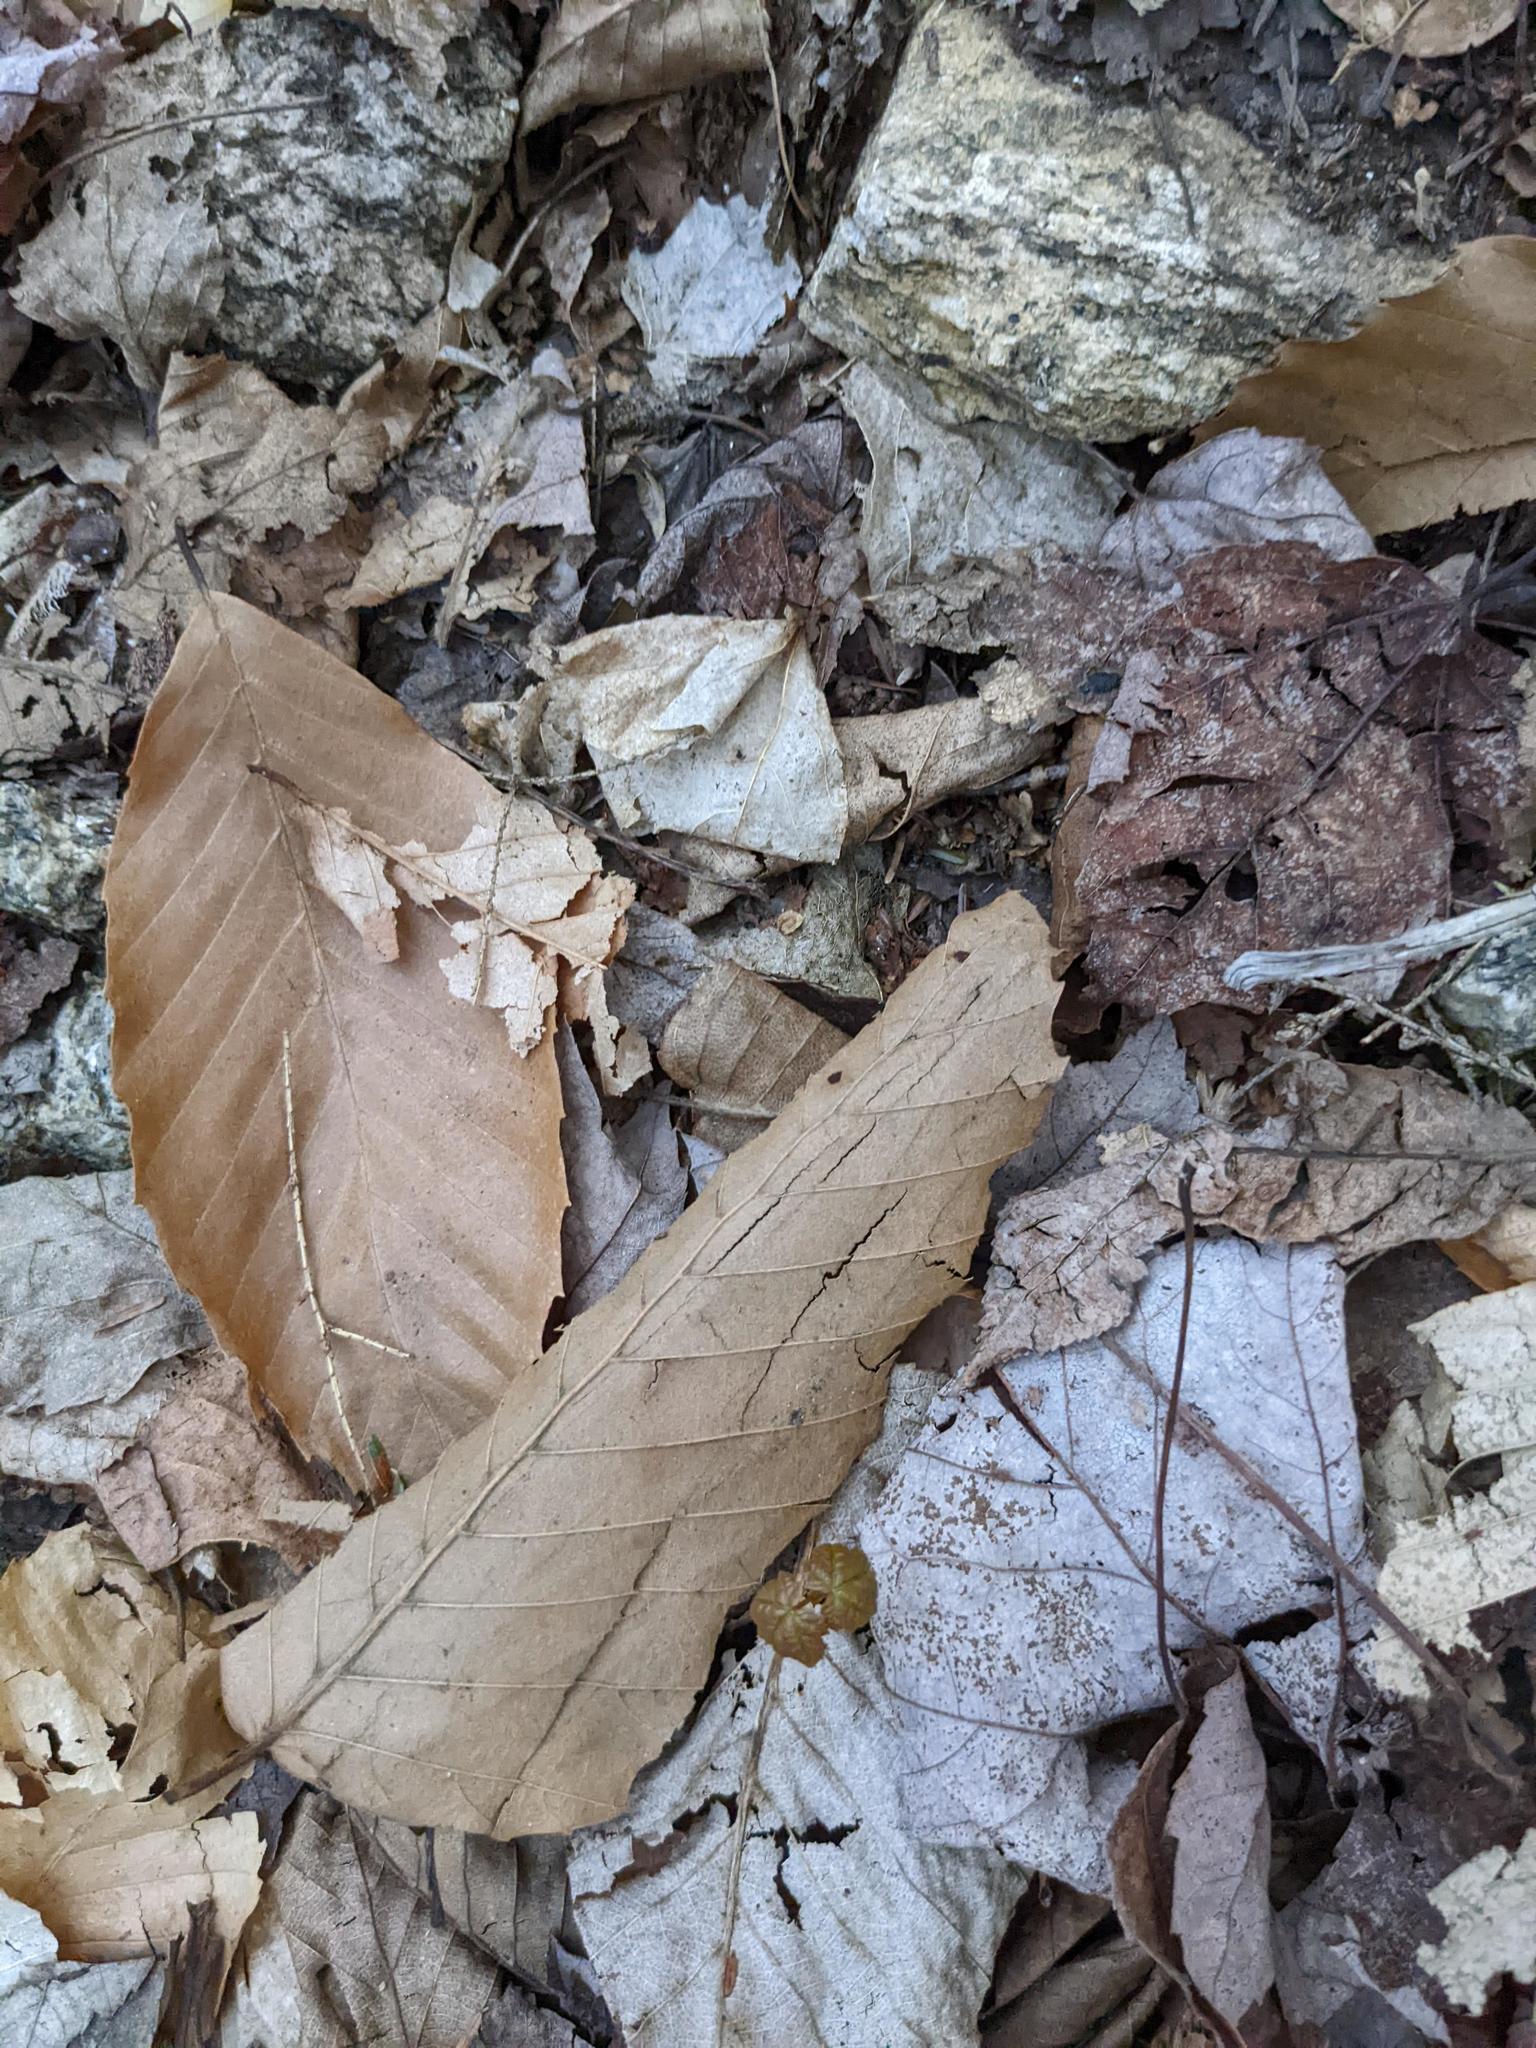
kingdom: Plantae
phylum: Tracheophyta
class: Magnoliopsida
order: Fagales
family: Fagaceae
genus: Fagus
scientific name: Fagus grandifolia
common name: American beech
